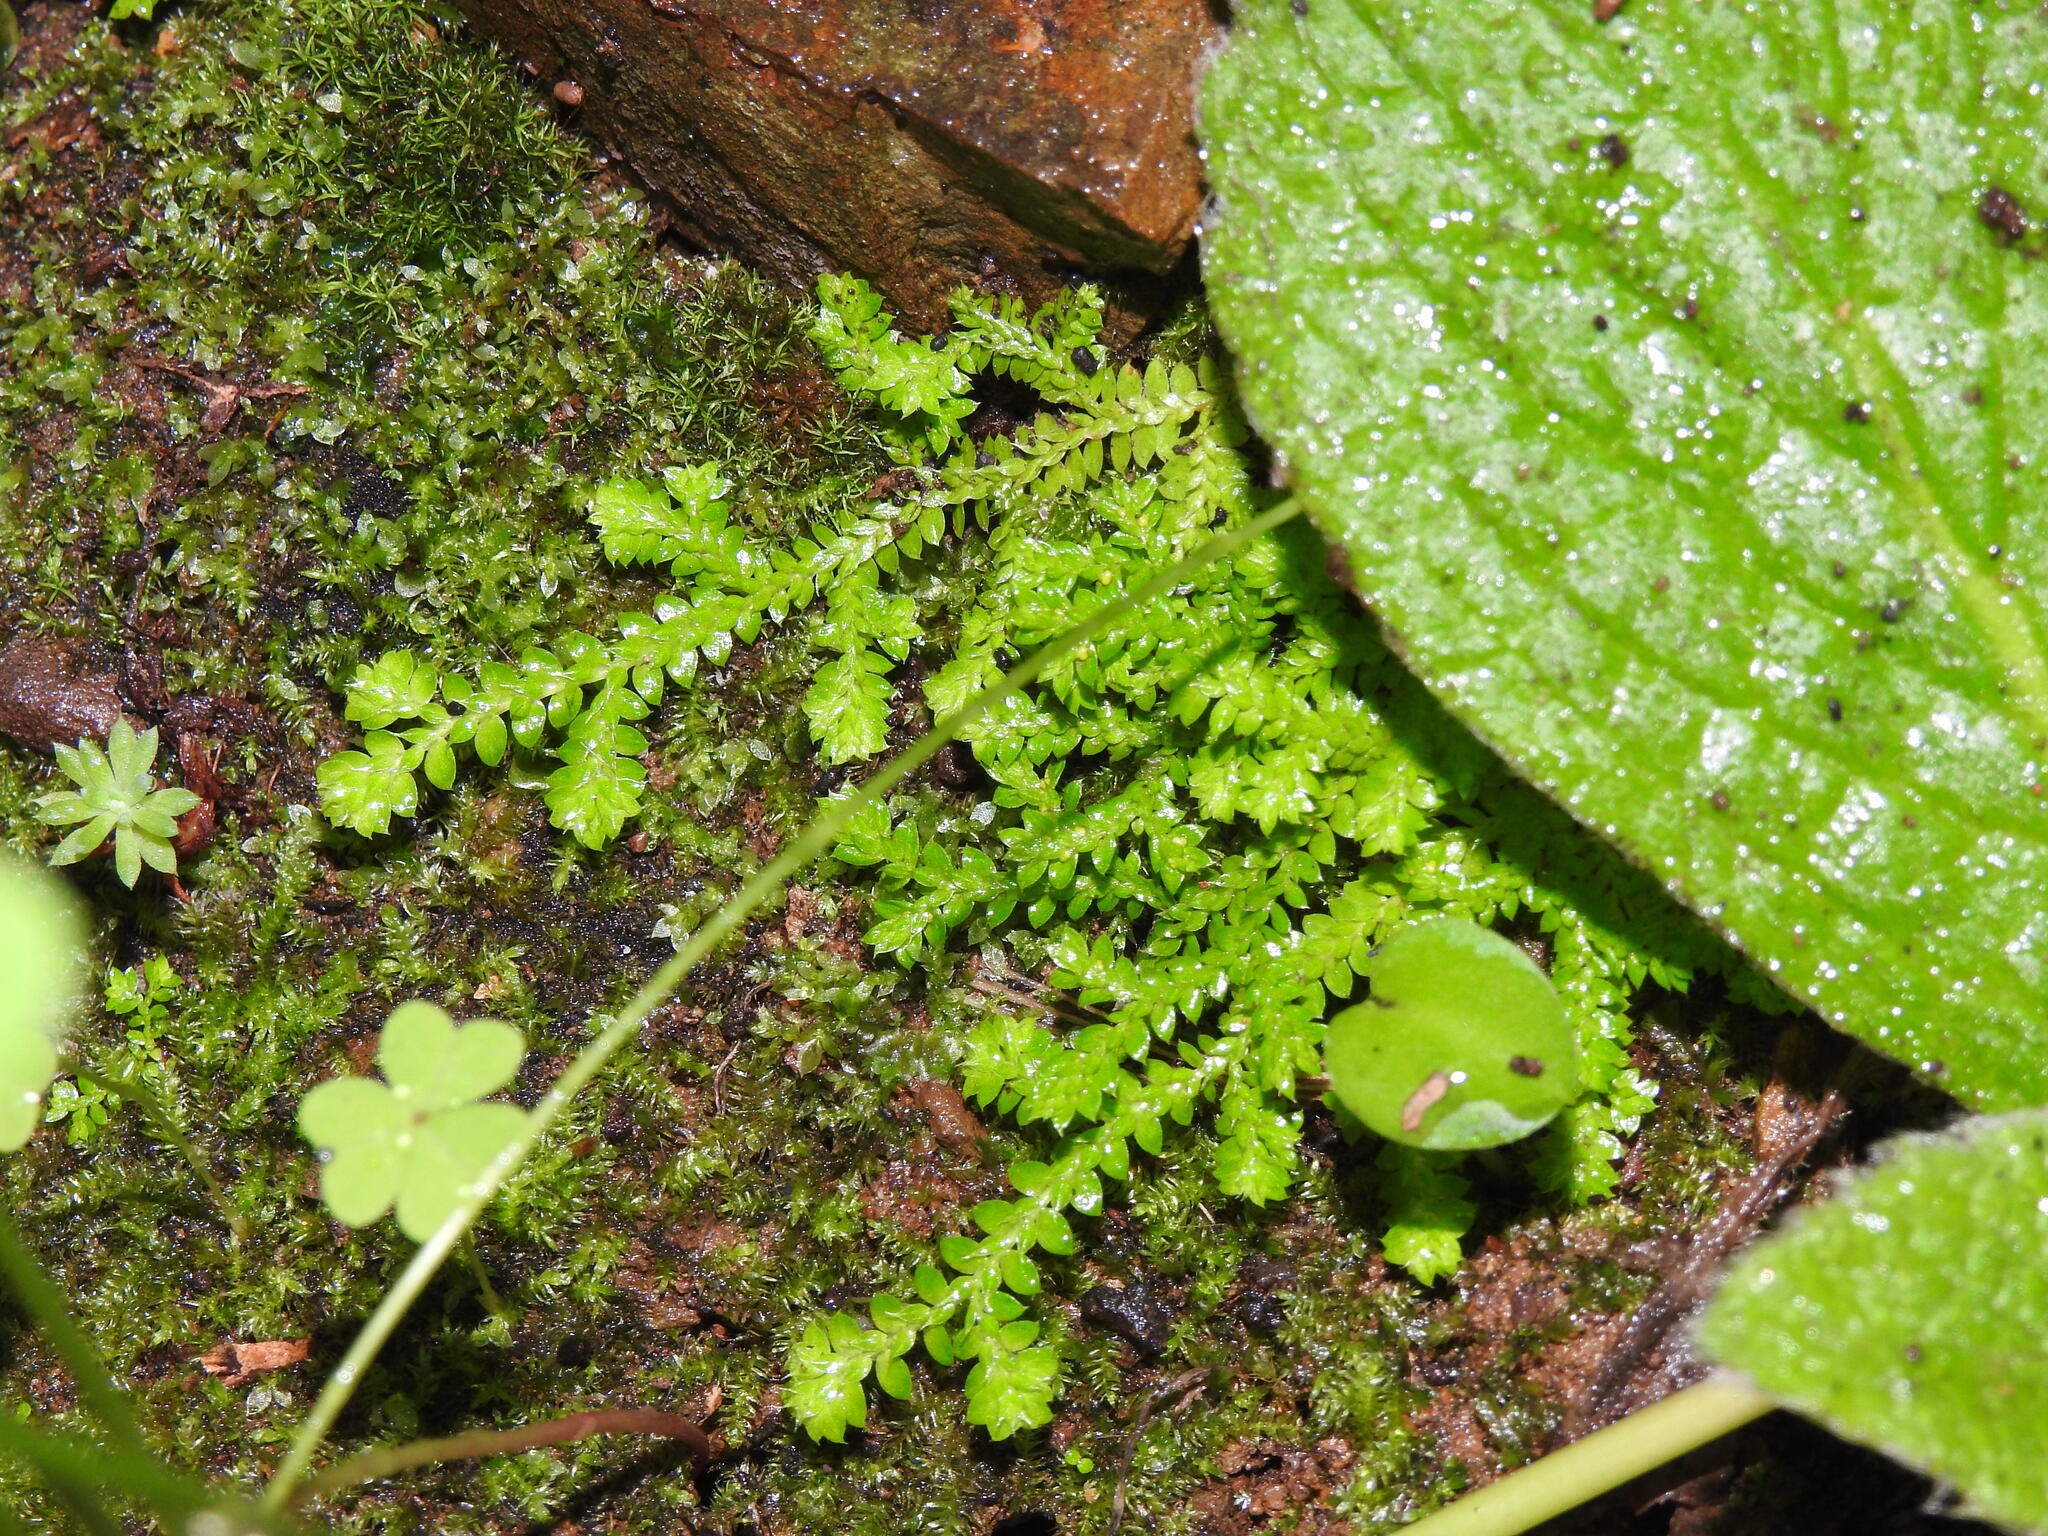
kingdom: Plantae
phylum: Tracheophyta
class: Lycopodiopsida
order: Selaginellales
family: Selaginellaceae
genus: Selaginella
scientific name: Selaginella denticulata
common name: Toothed-leaved clubmoss
